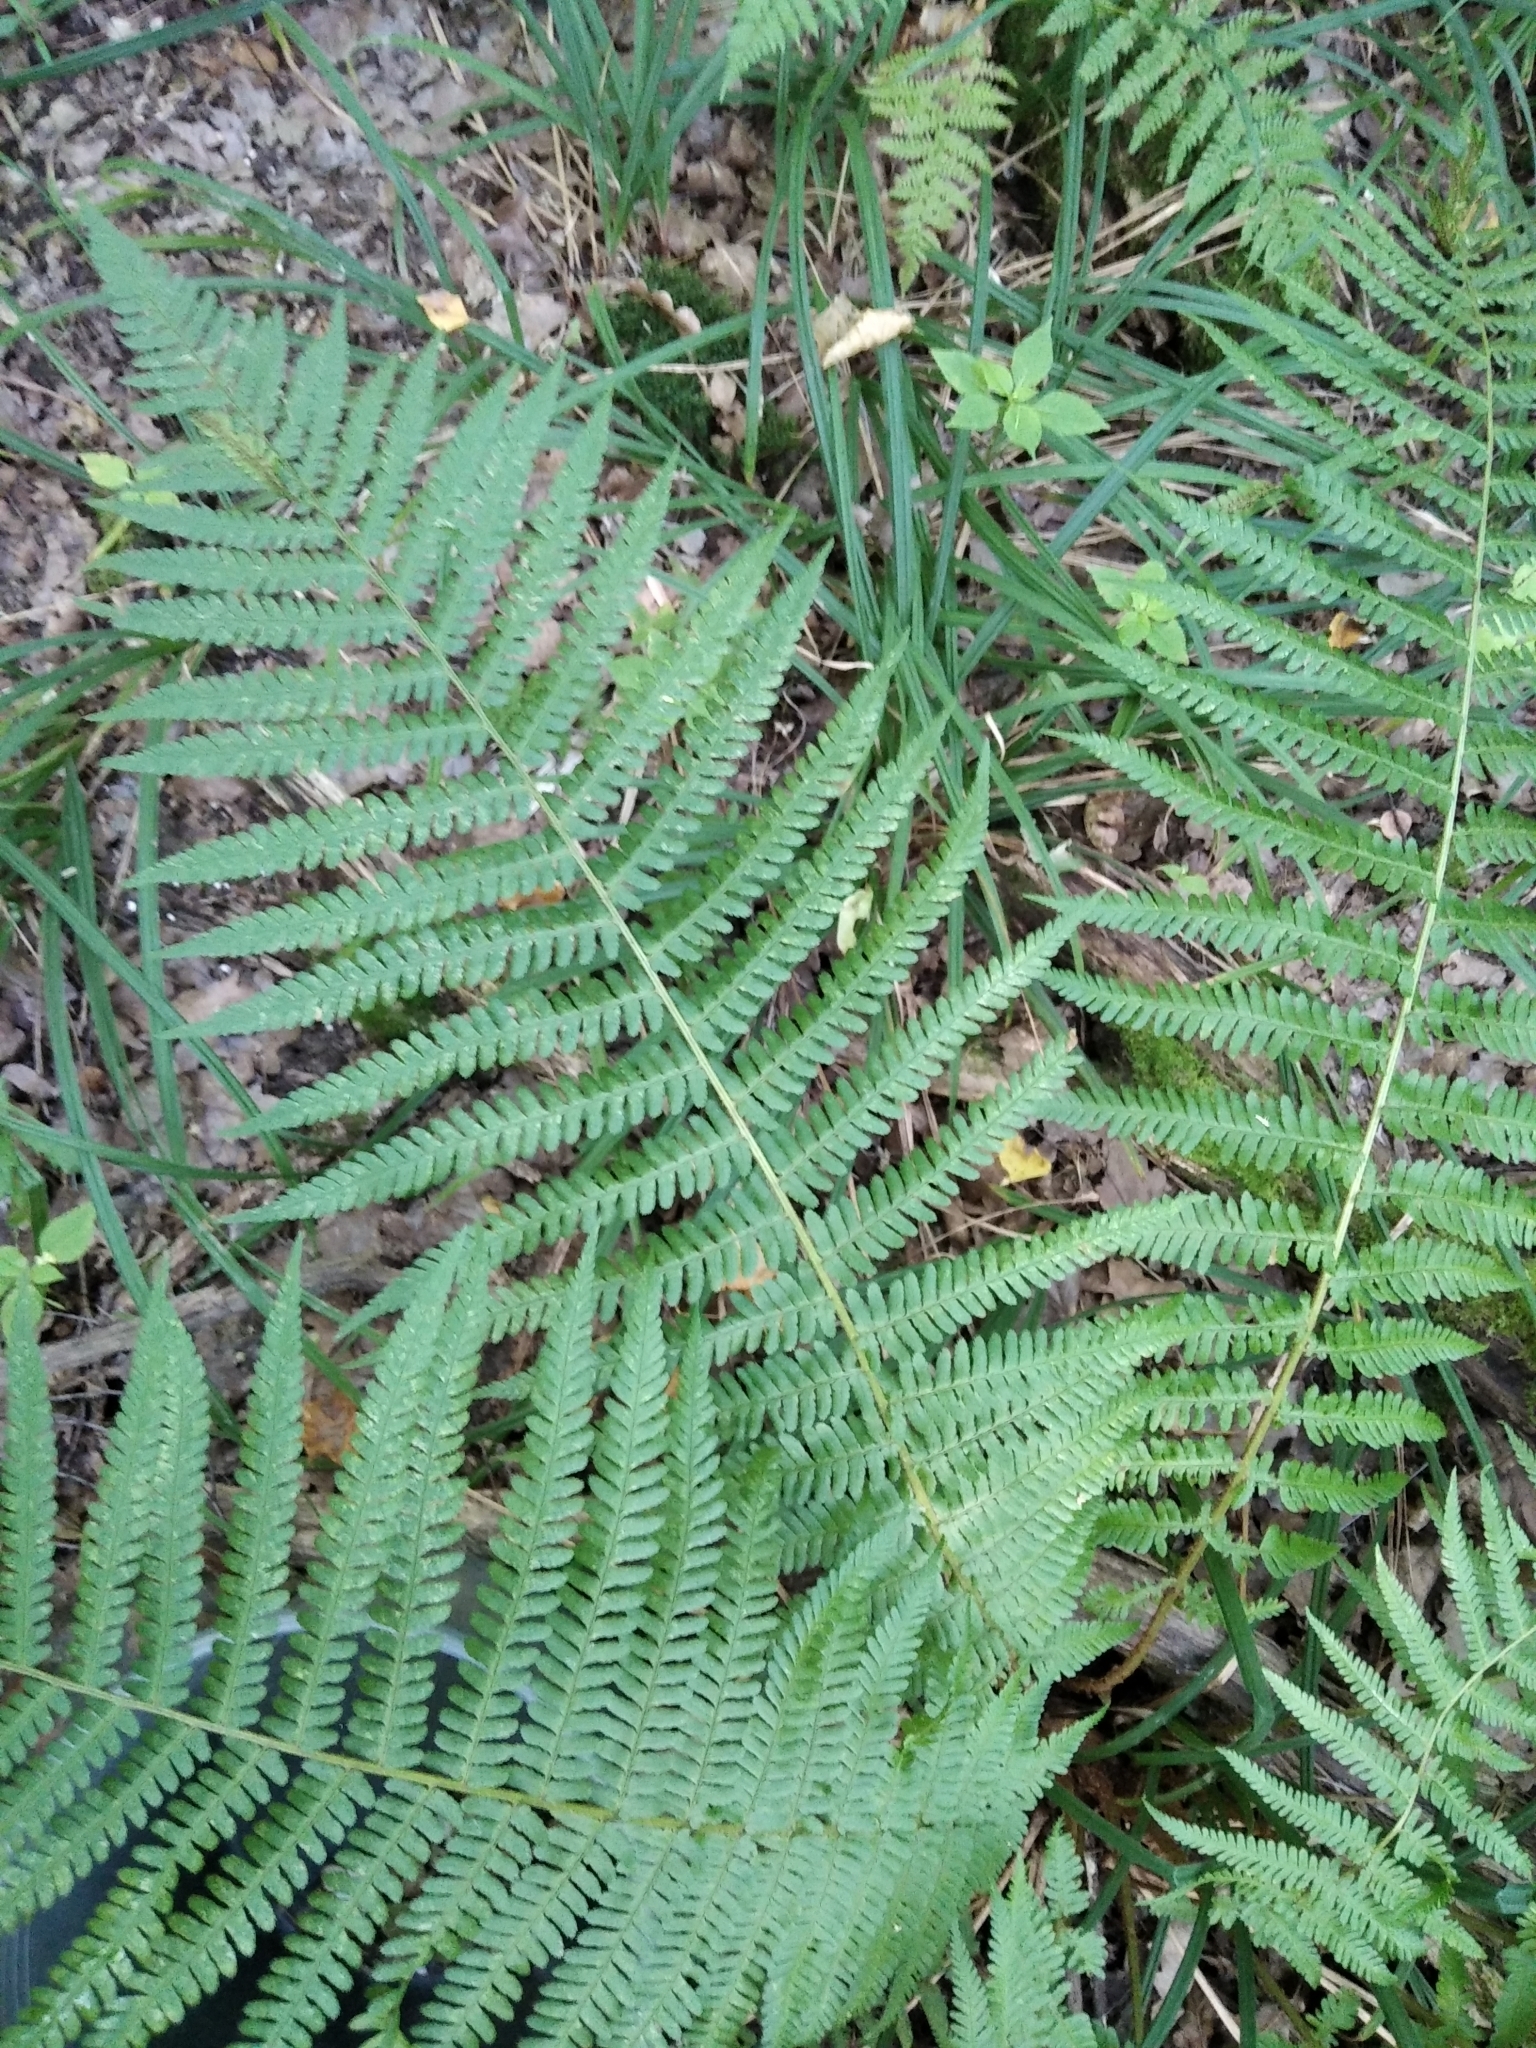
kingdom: Plantae
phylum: Tracheophyta
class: Polypodiopsida
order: Polypodiales
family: Dryopteridaceae
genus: Dryopteris
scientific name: Dryopteris filix-mas
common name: Male fern
